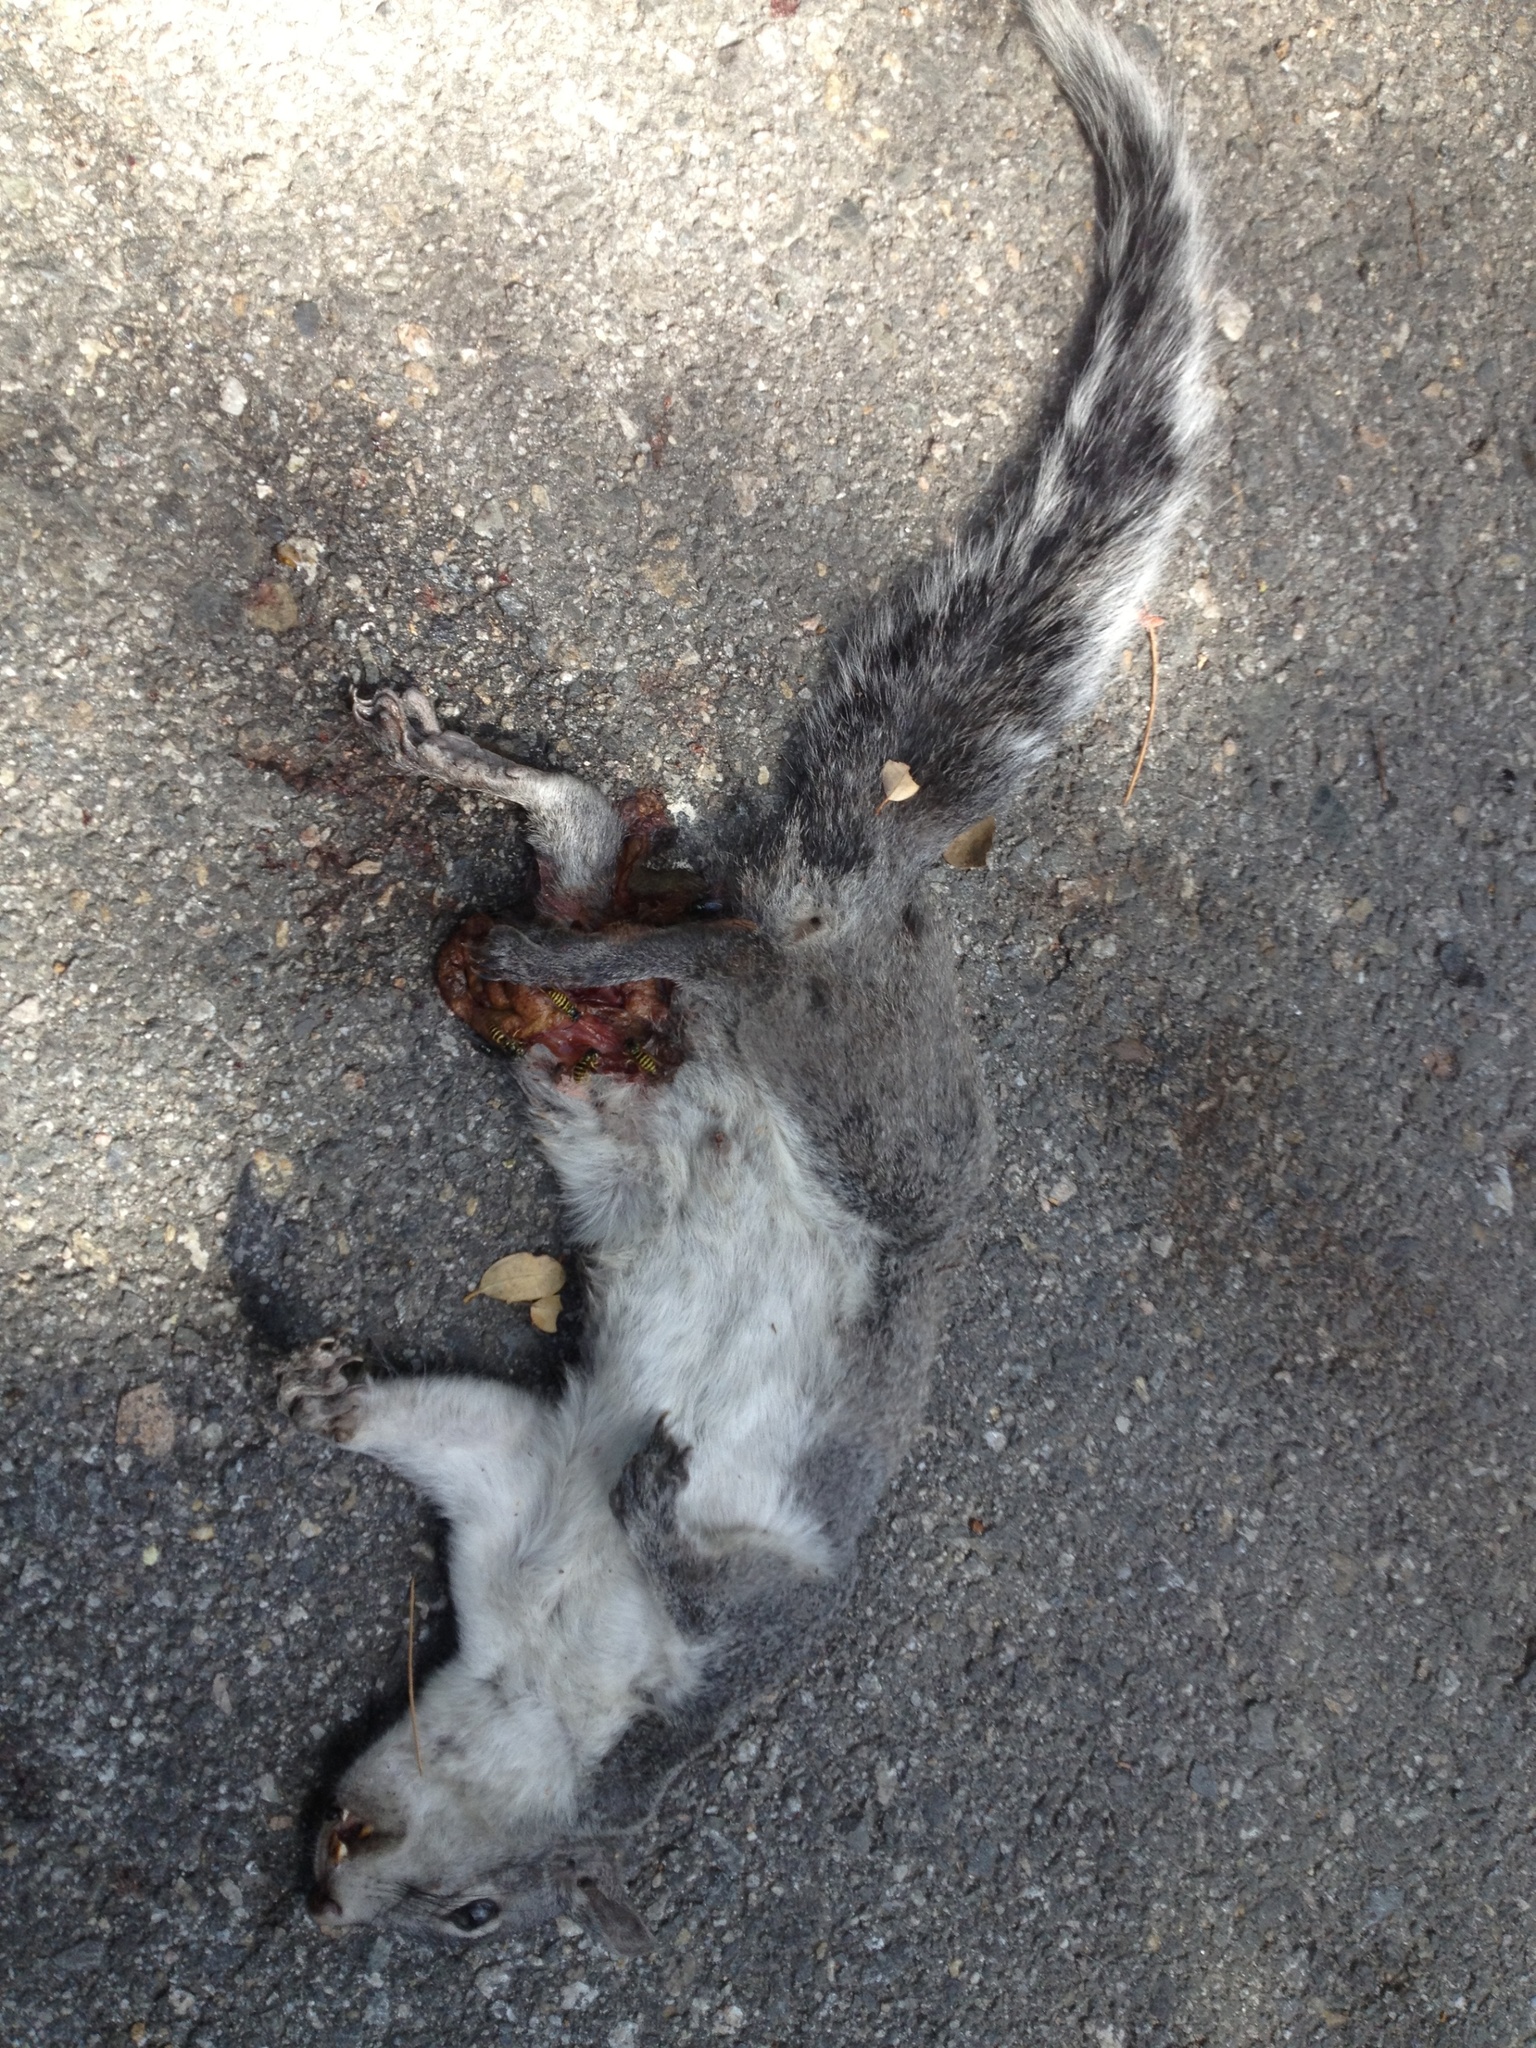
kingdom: Animalia
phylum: Chordata
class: Mammalia
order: Rodentia
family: Sciuridae
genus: Sciurus
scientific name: Sciurus griseus
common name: Western gray squirrel
